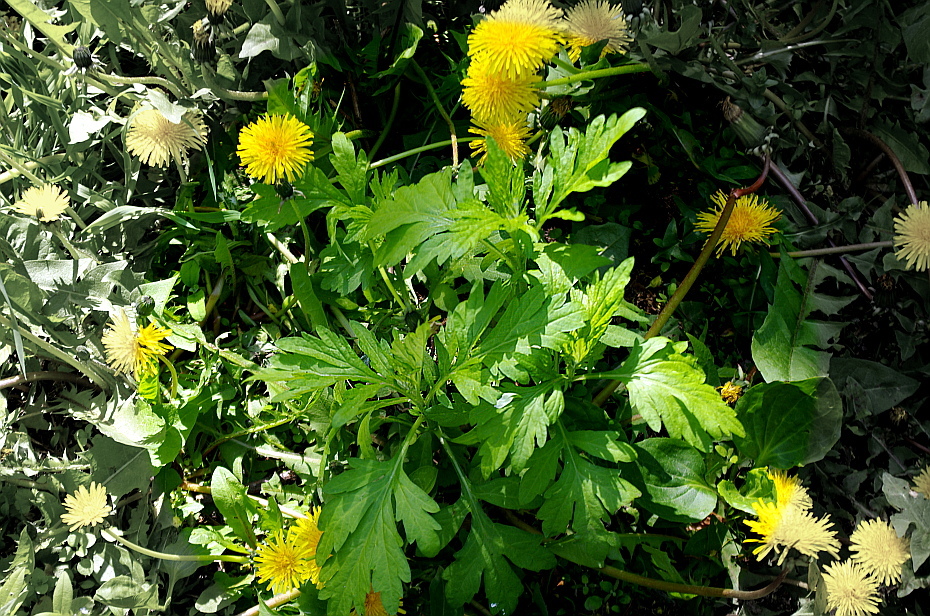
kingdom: Plantae
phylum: Tracheophyta
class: Magnoliopsida
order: Asterales
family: Asteraceae
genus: Artemisia
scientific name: Artemisia vulgaris
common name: Mugwort
